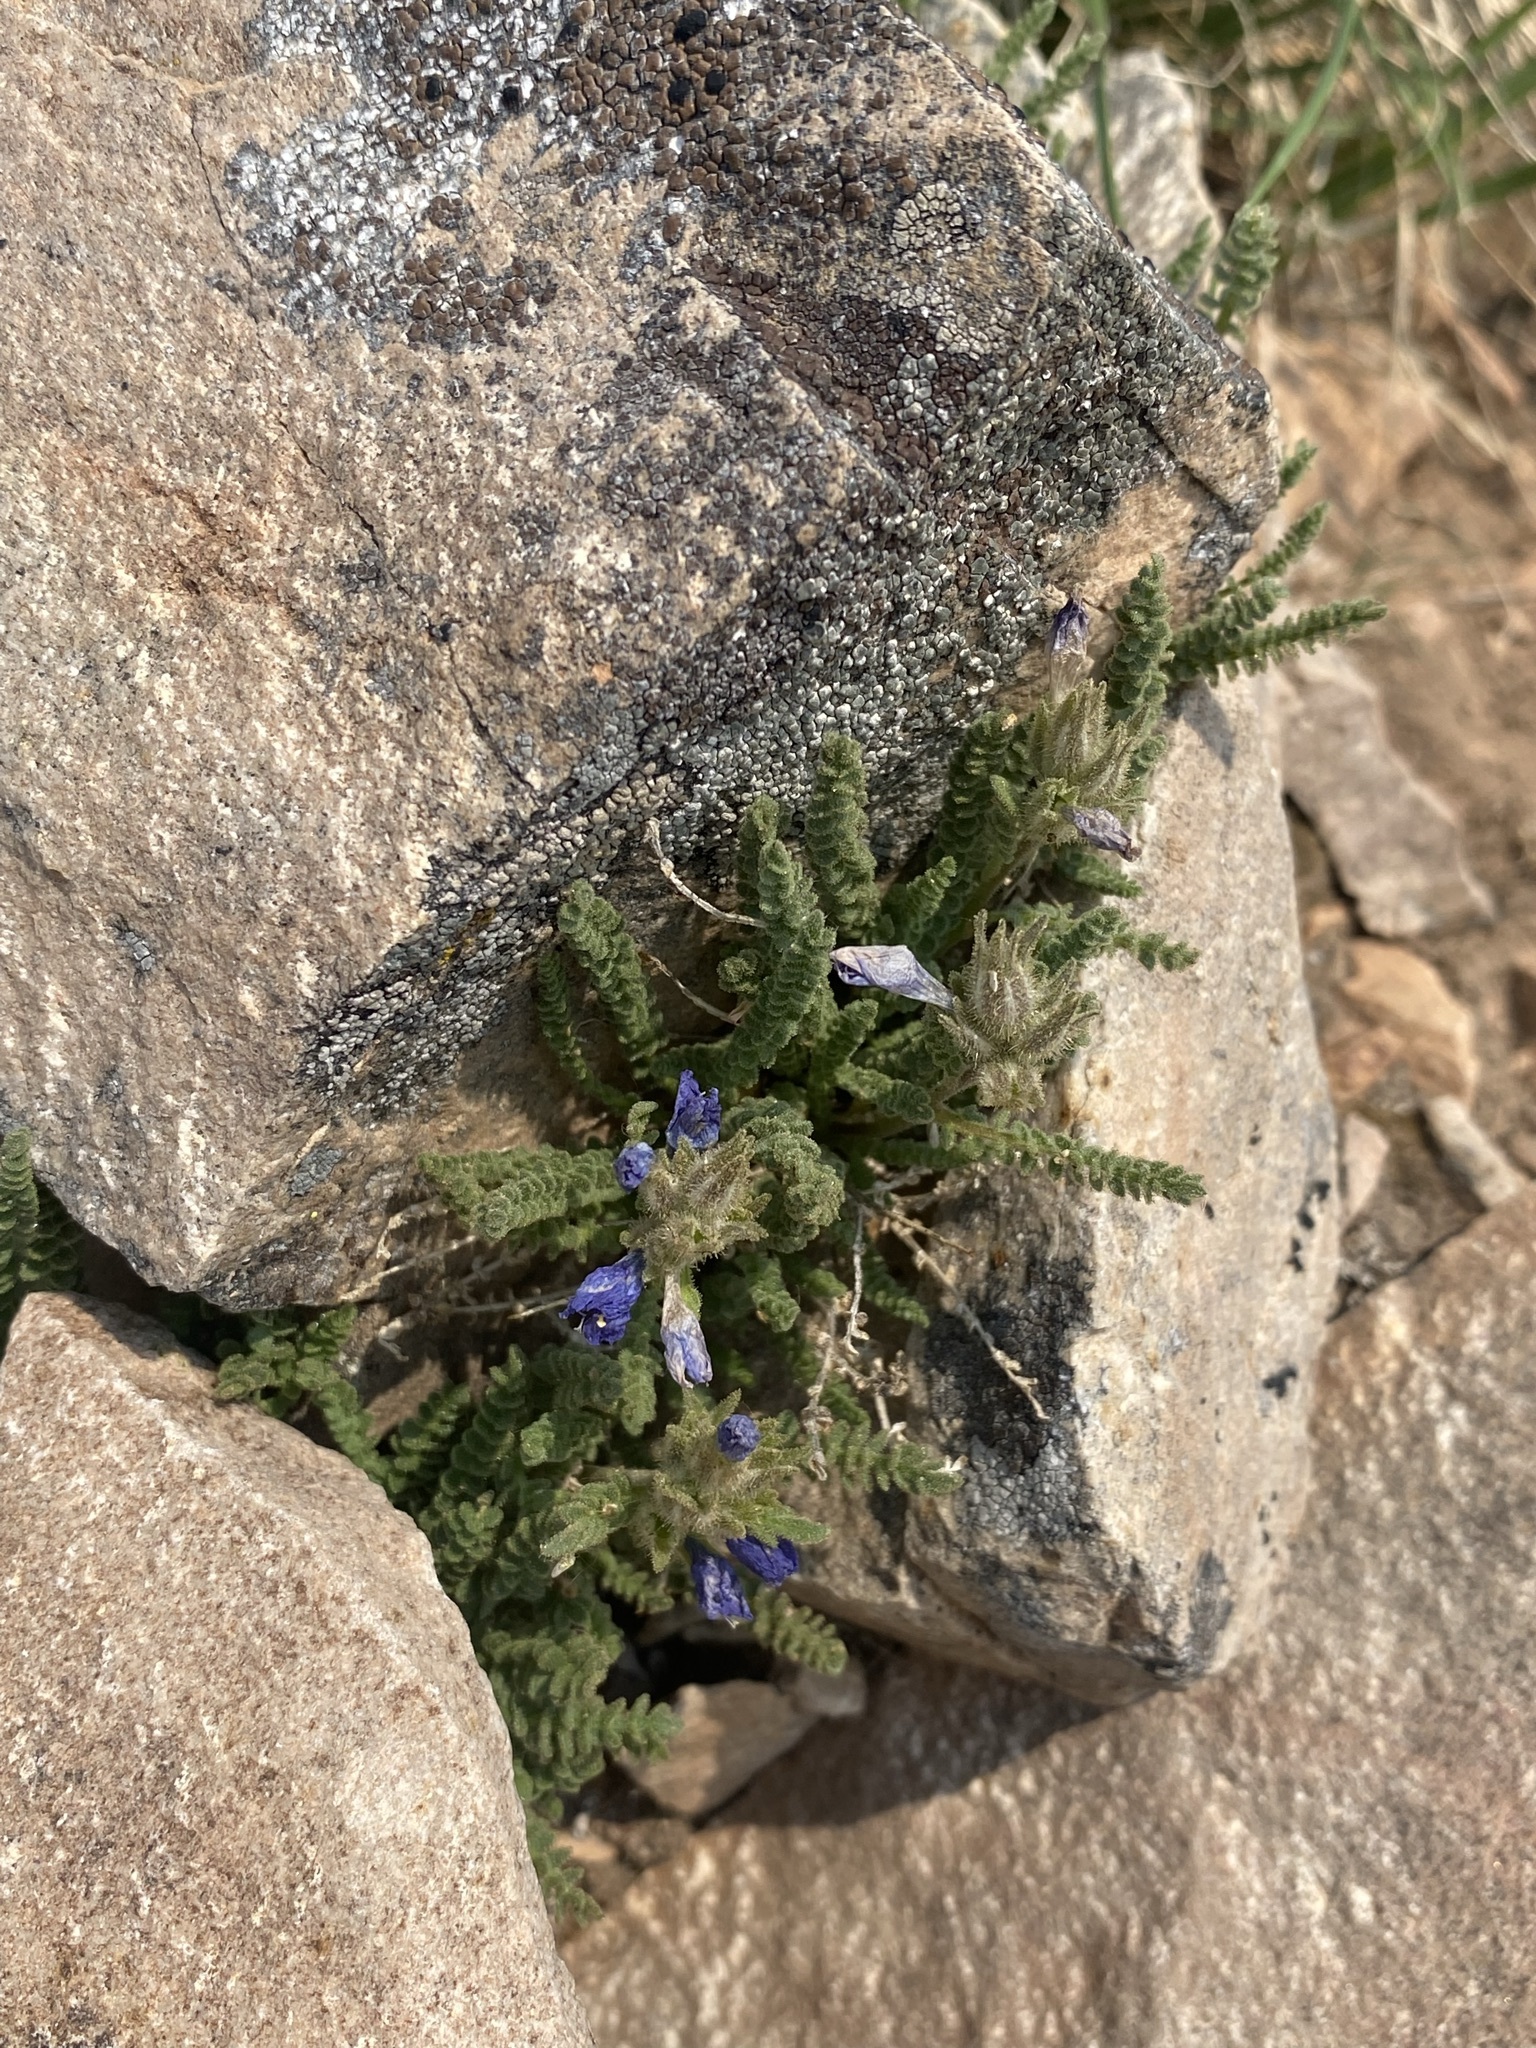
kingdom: Plantae
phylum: Tracheophyta
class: Magnoliopsida
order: Ericales
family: Polemoniaceae
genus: Polemonium
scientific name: Polemonium viscosum
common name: Skunk jacob's-ladder
